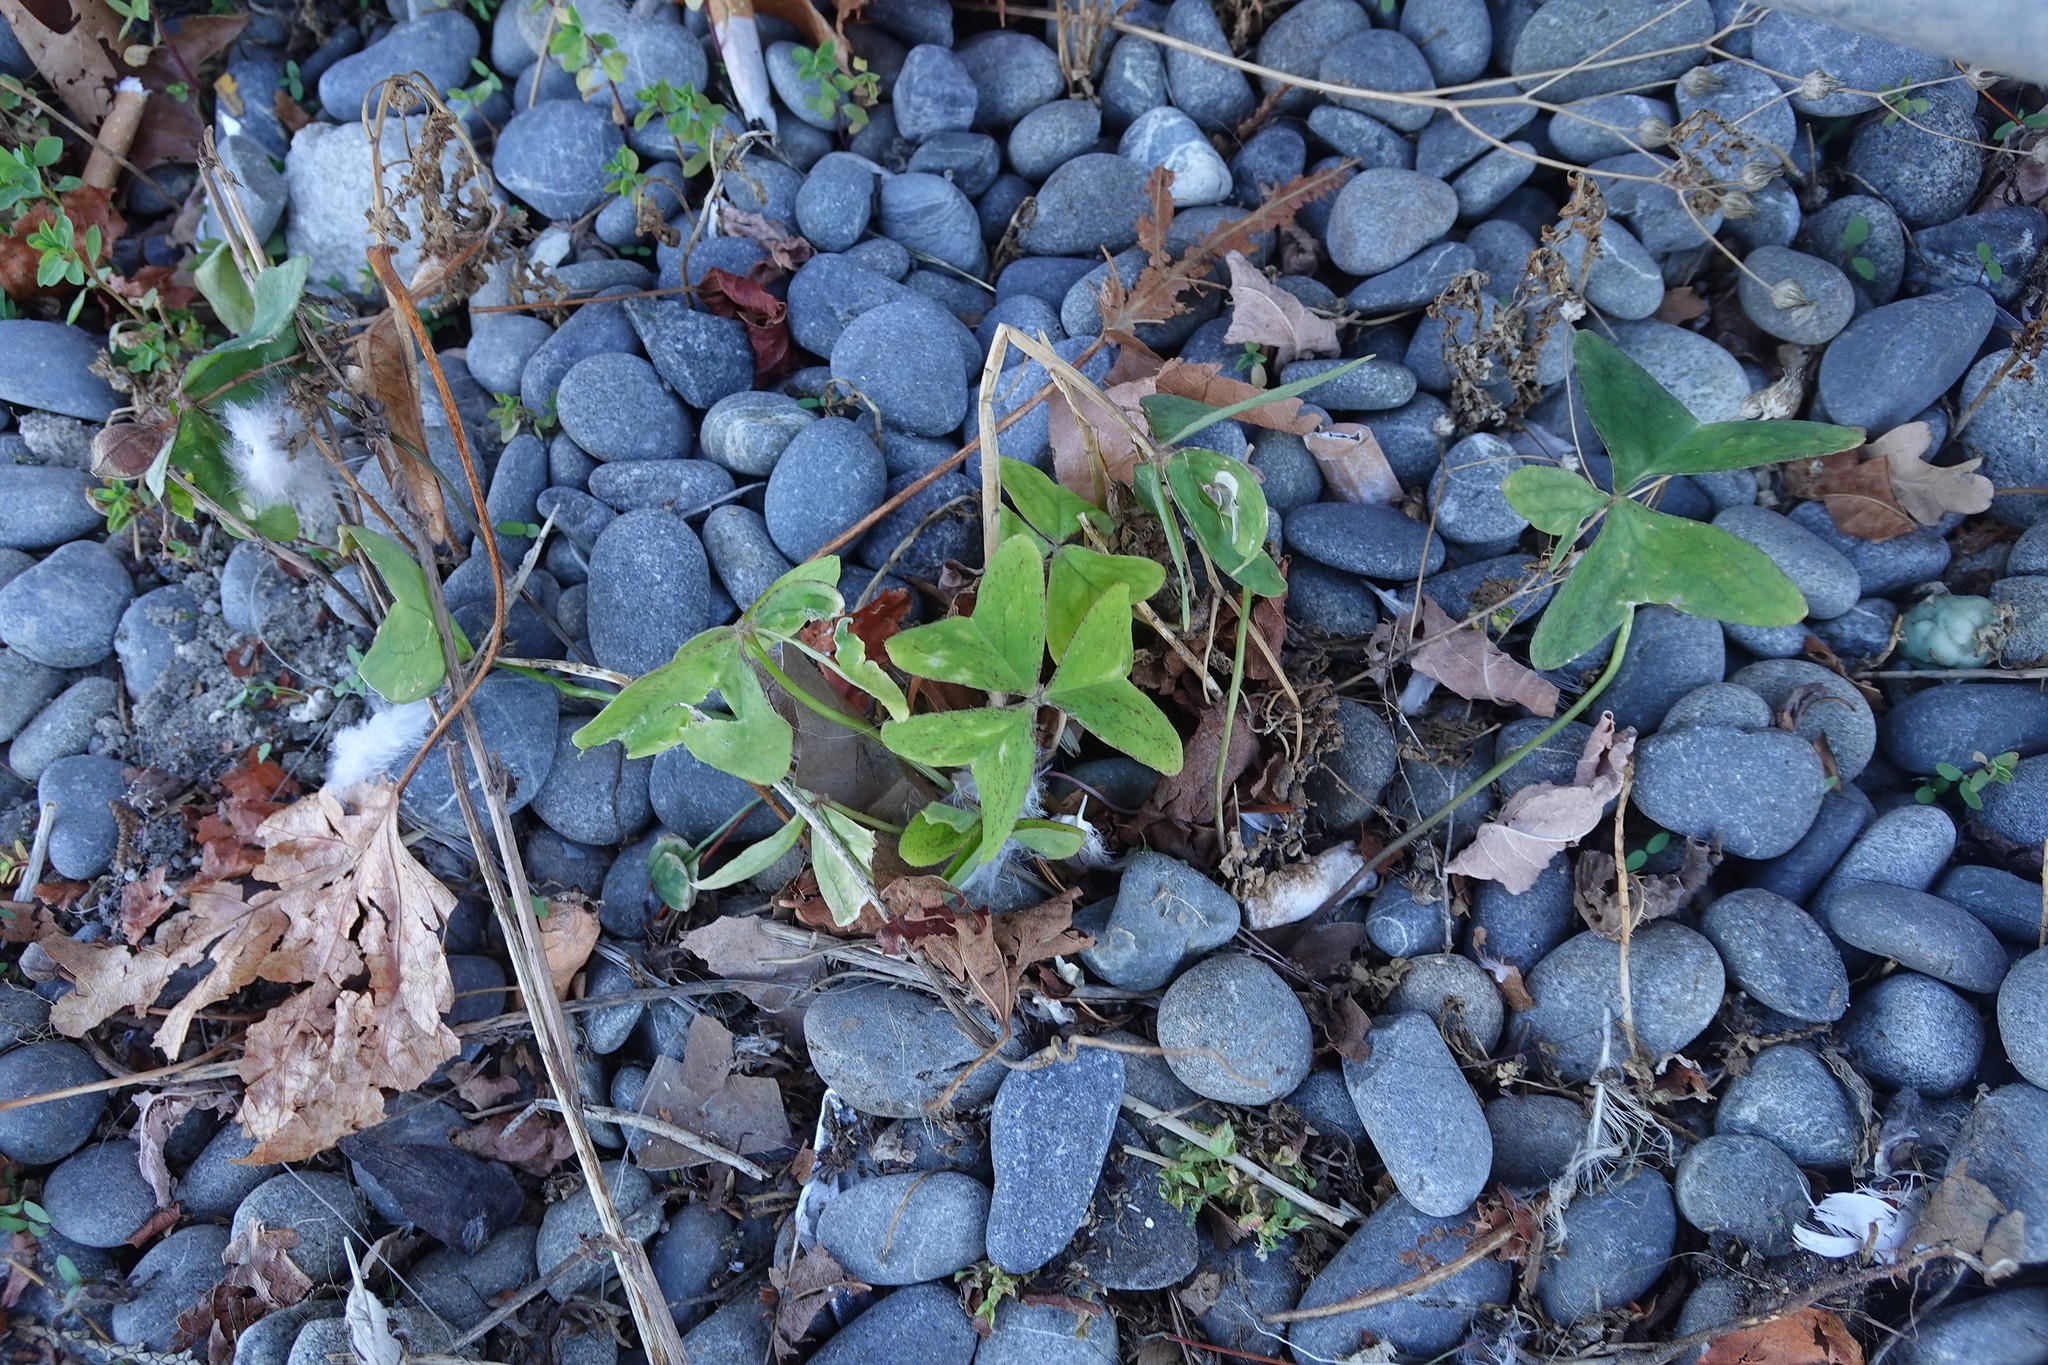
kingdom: Plantae
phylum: Tracheophyta
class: Magnoliopsida
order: Oxalidales
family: Oxalidaceae
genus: Oxalis
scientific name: Oxalis latifolia
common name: Garden pink-sorrel
